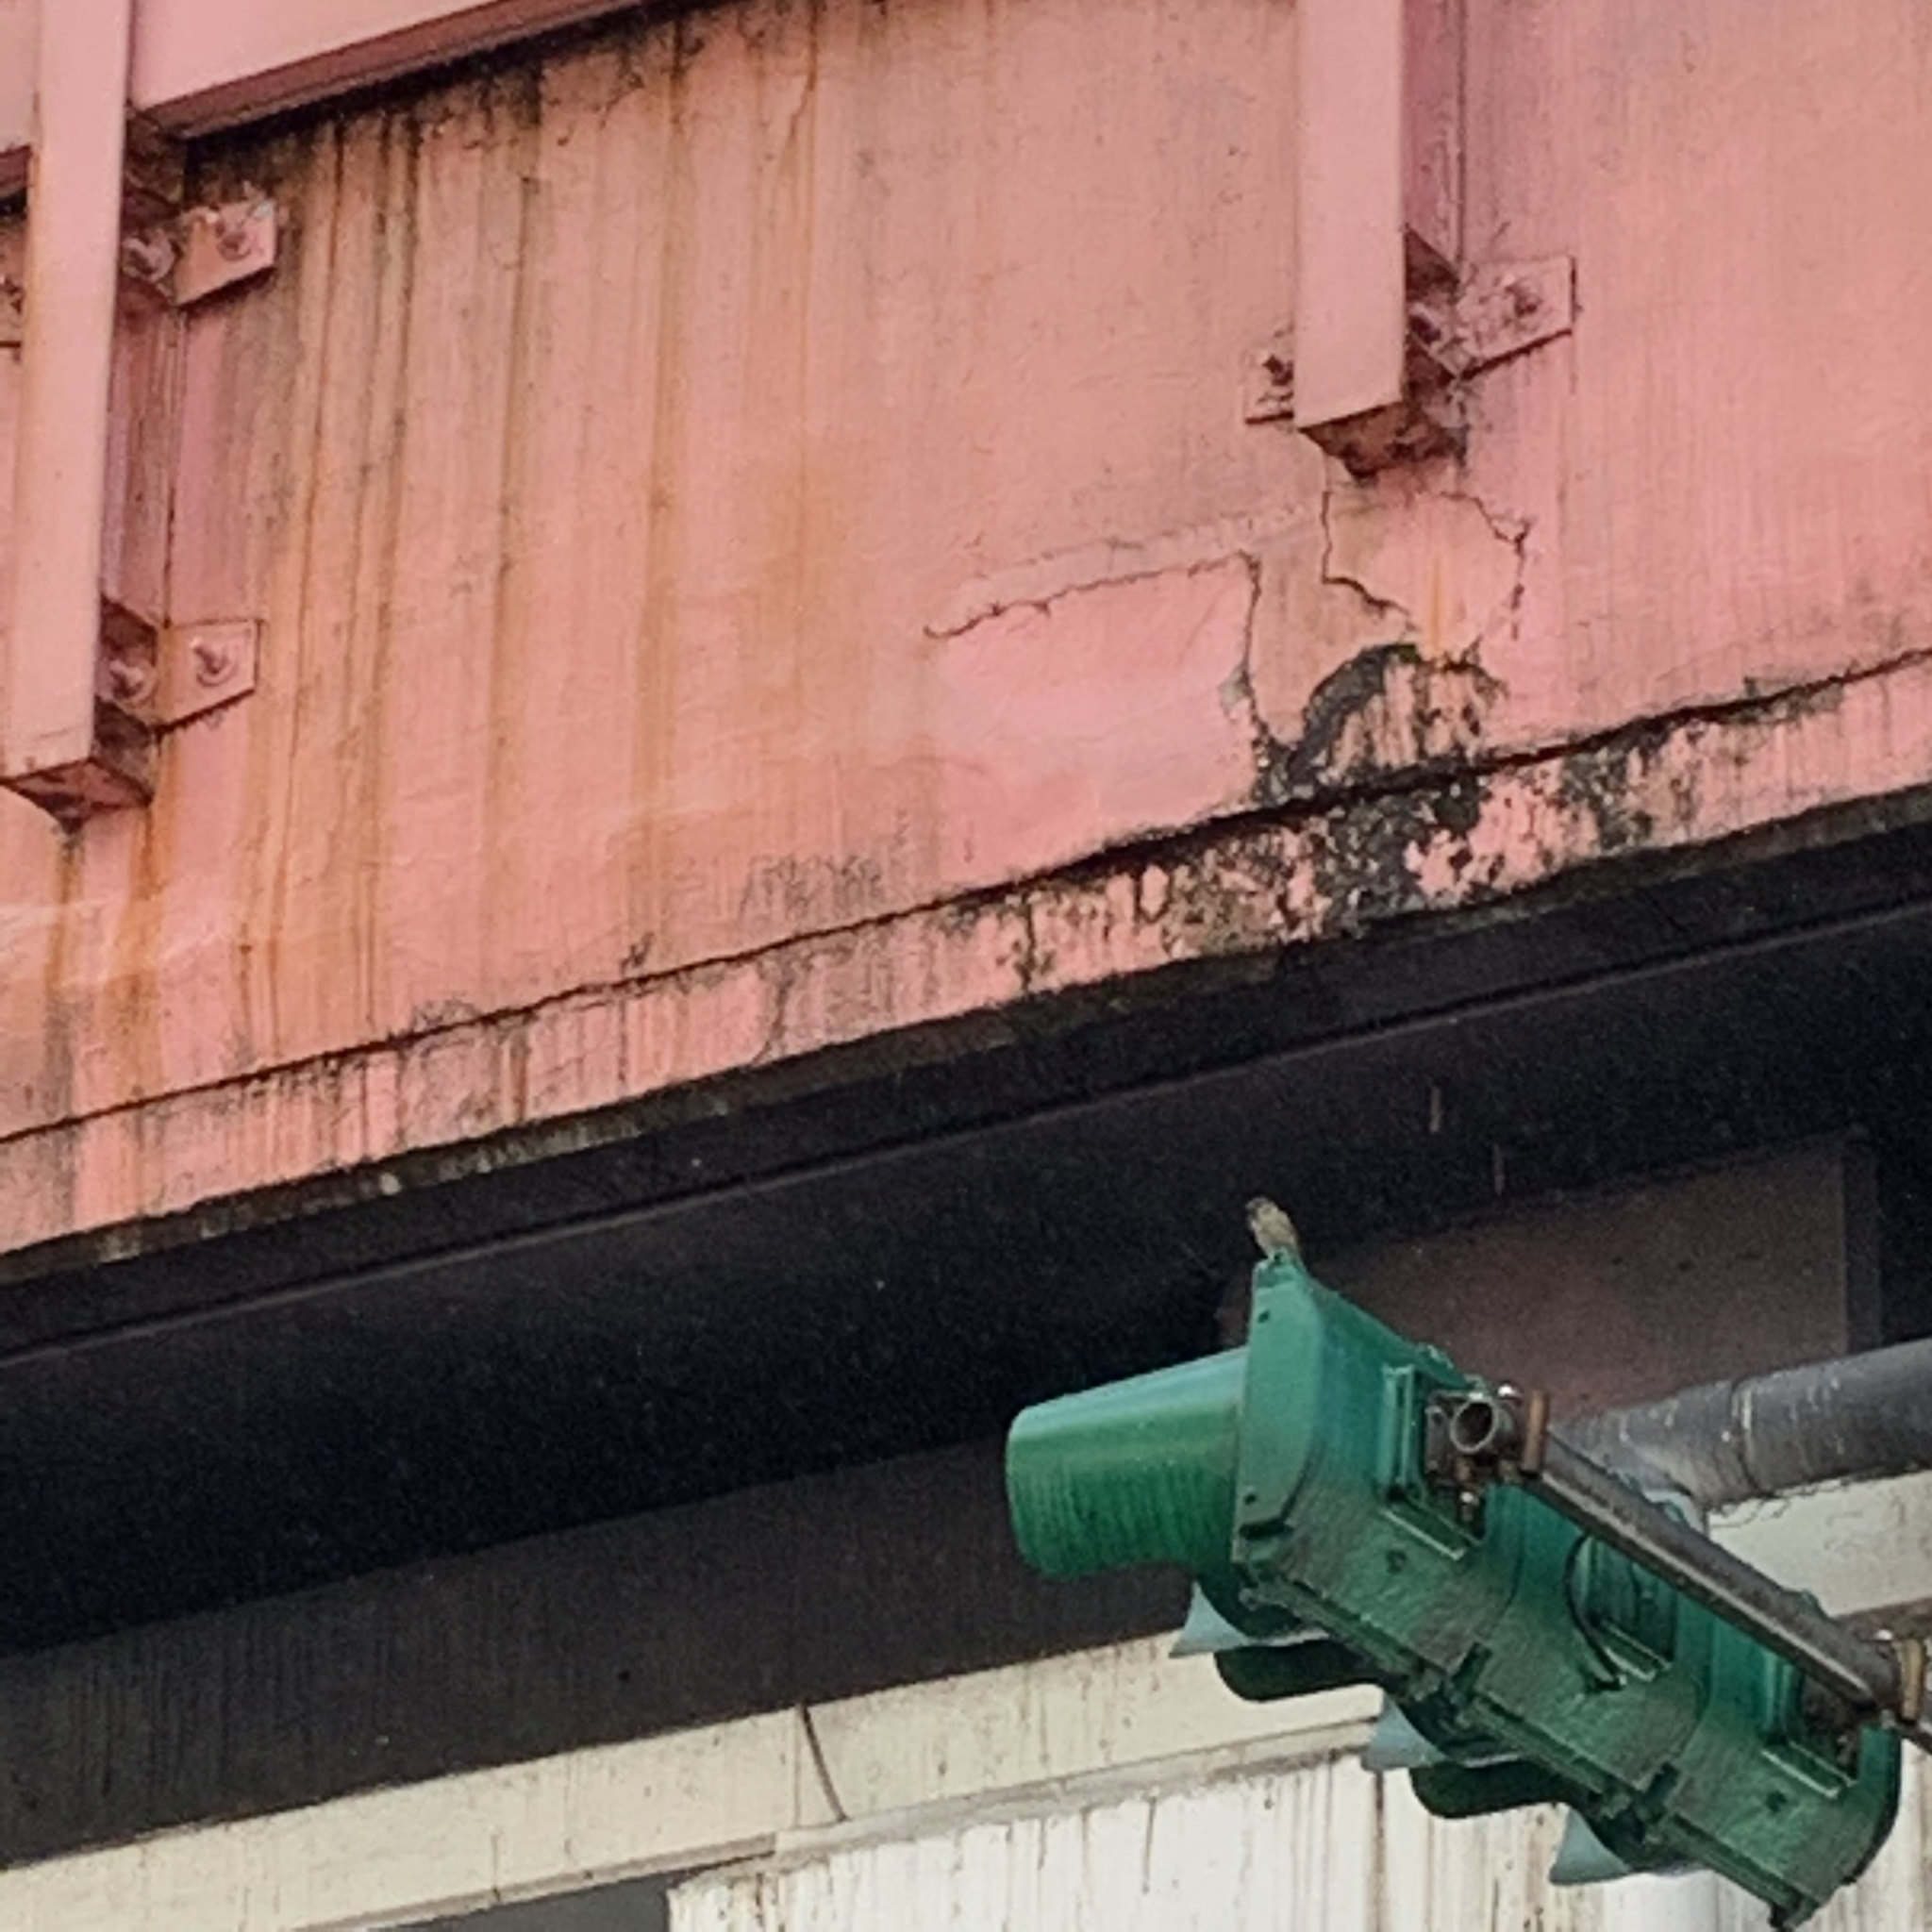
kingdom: Animalia
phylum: Chordata
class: Aves
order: Passeriformes
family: Passeridae
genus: Passer
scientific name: Passer montanus
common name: Eurasian tree sparrow
